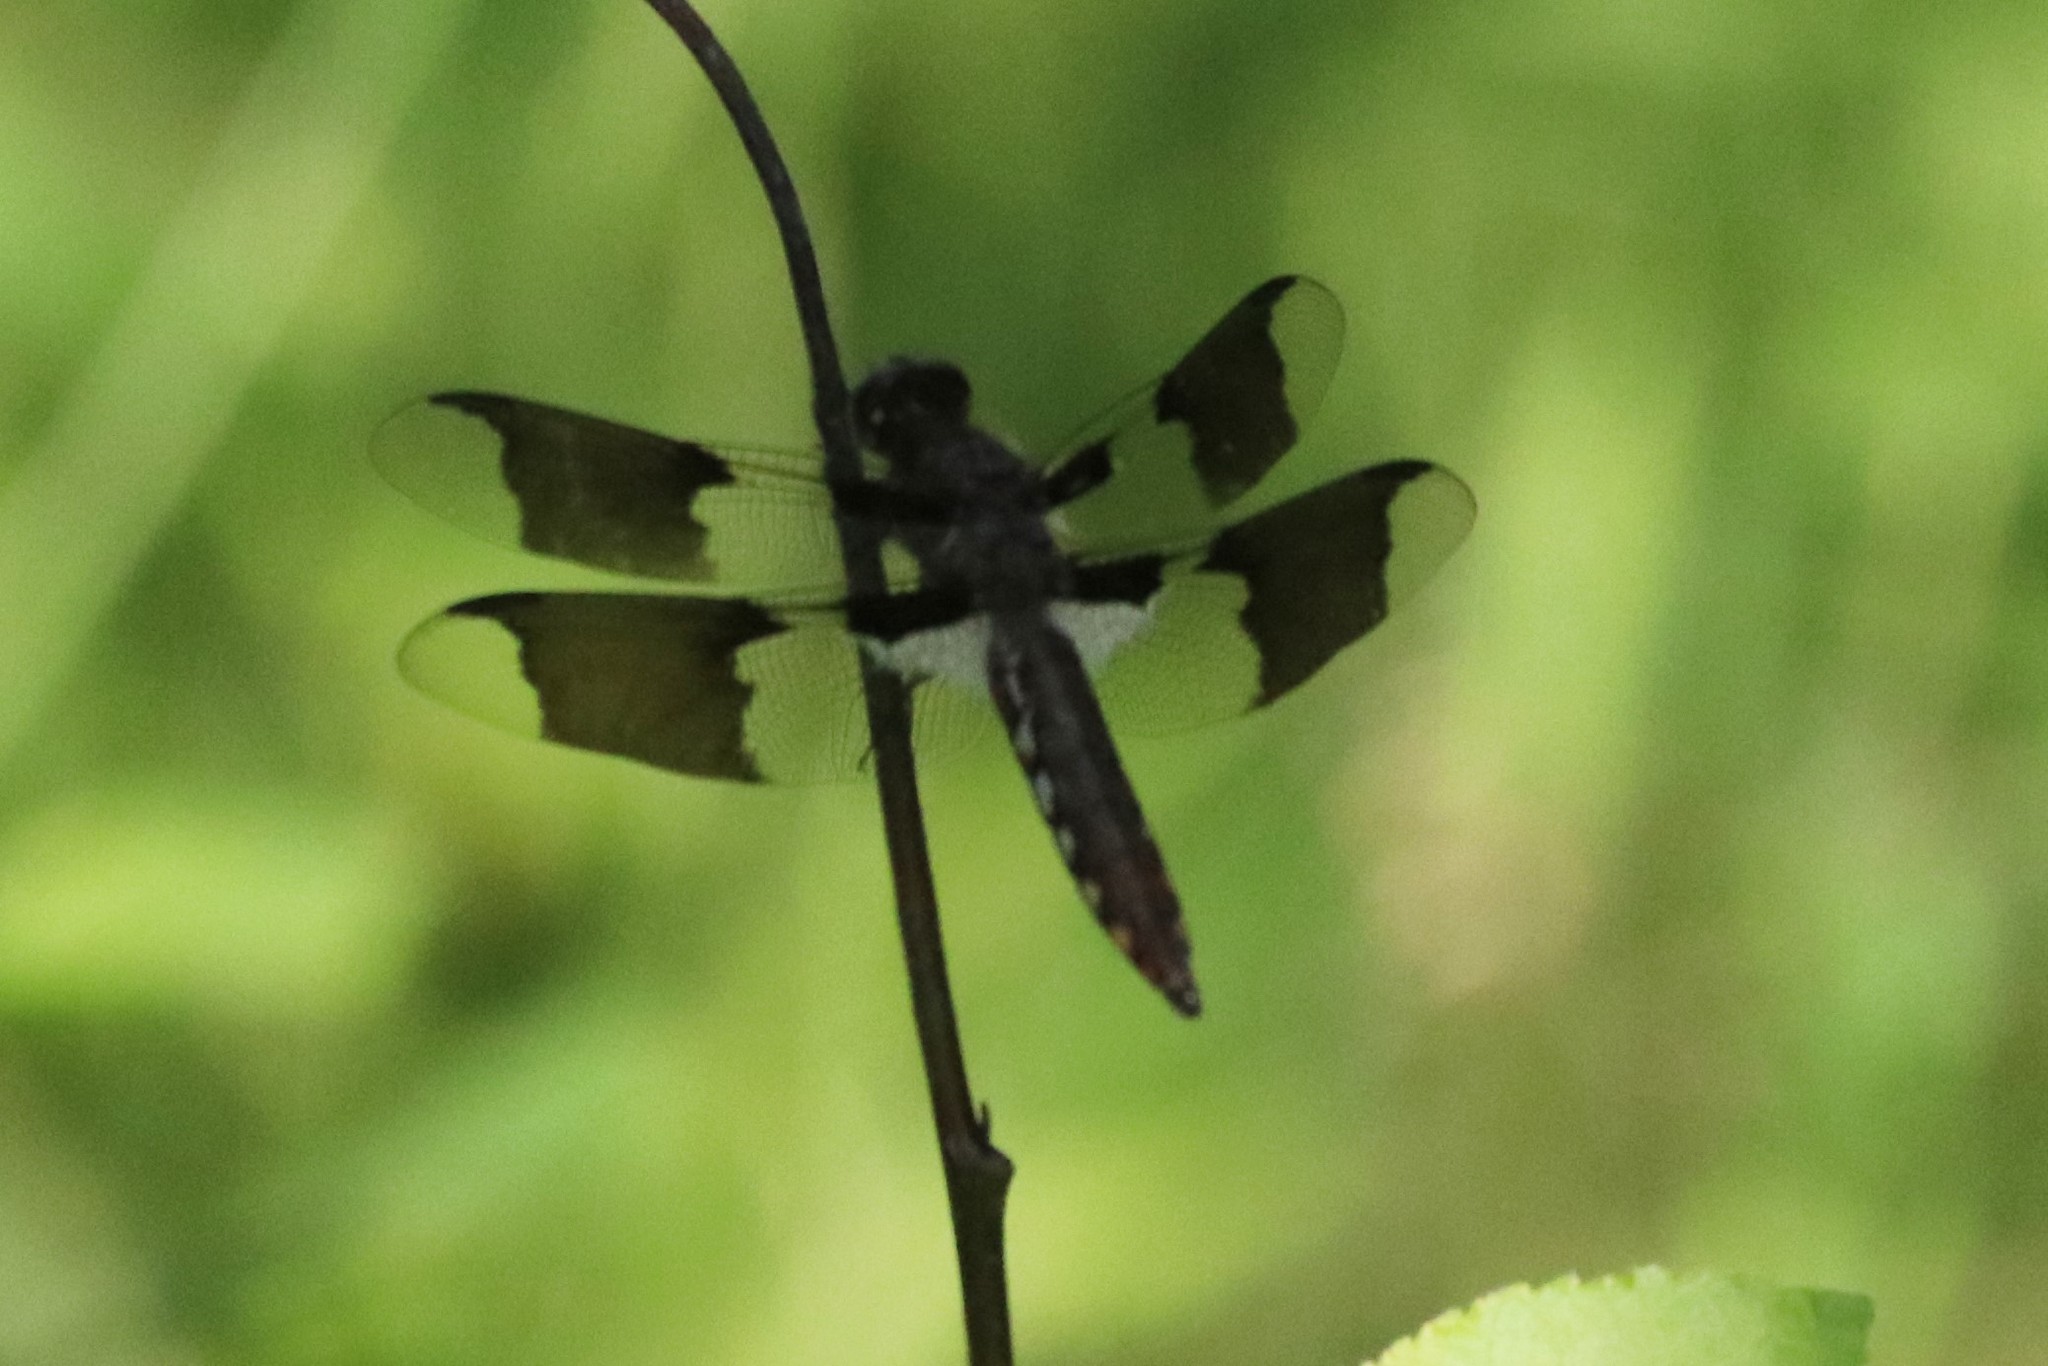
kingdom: Animalia
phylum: Arthropoda
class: Insecta
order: Odonata
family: Libellulidae
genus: Plathemis
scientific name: Plathemis lydia
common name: Common whitetail
